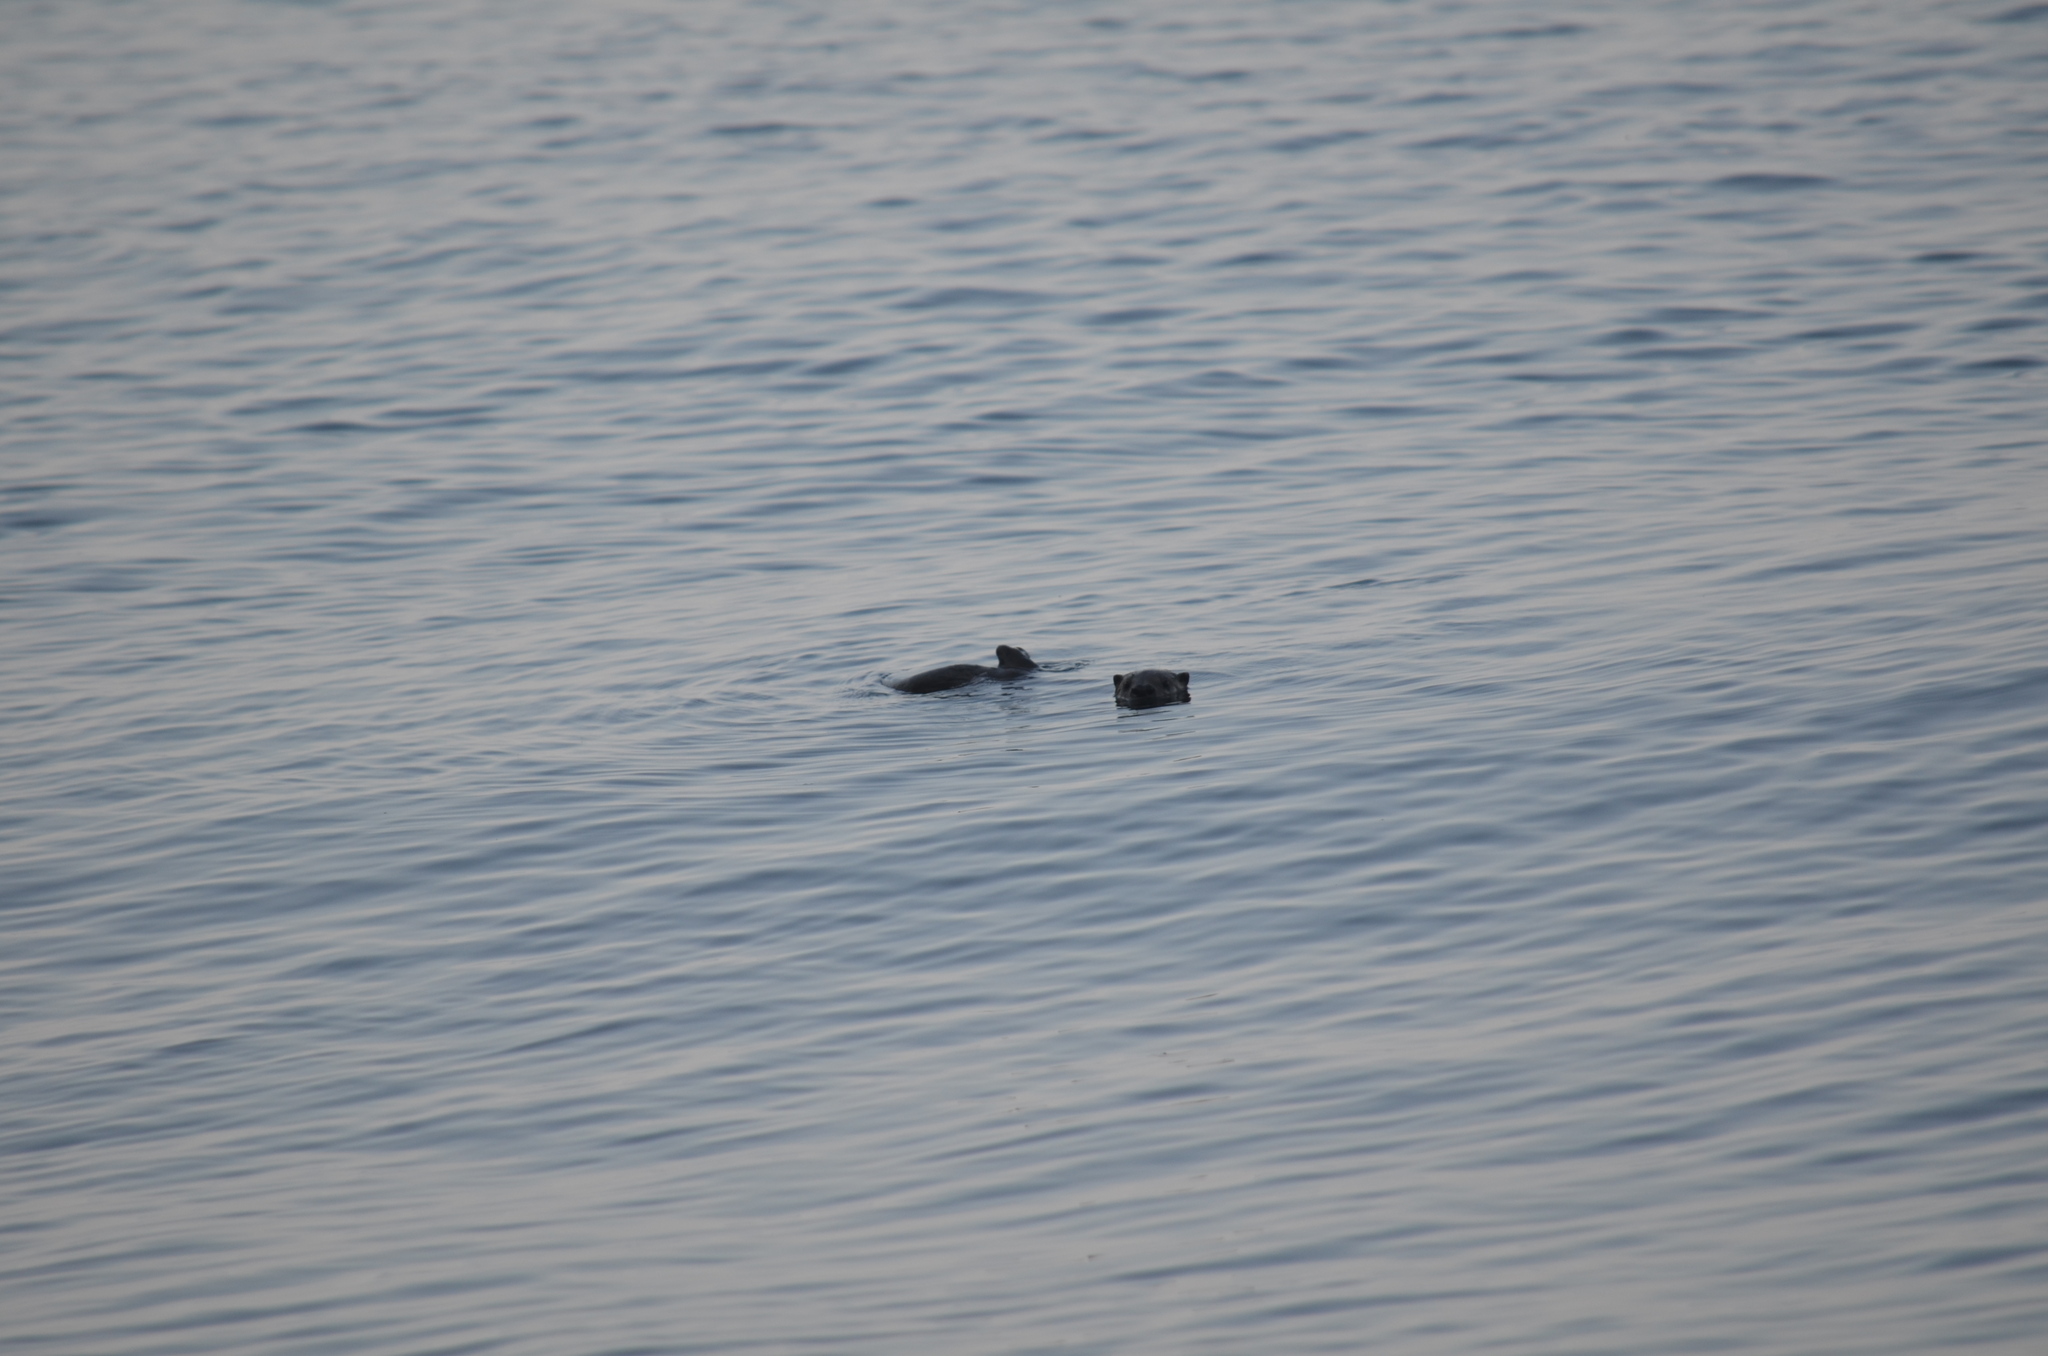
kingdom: Animalia
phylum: Chordata
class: Mammalia
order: Carnivora
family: Mustelidae
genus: Lontra
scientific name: Lontra canadensis
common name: North american river otter
